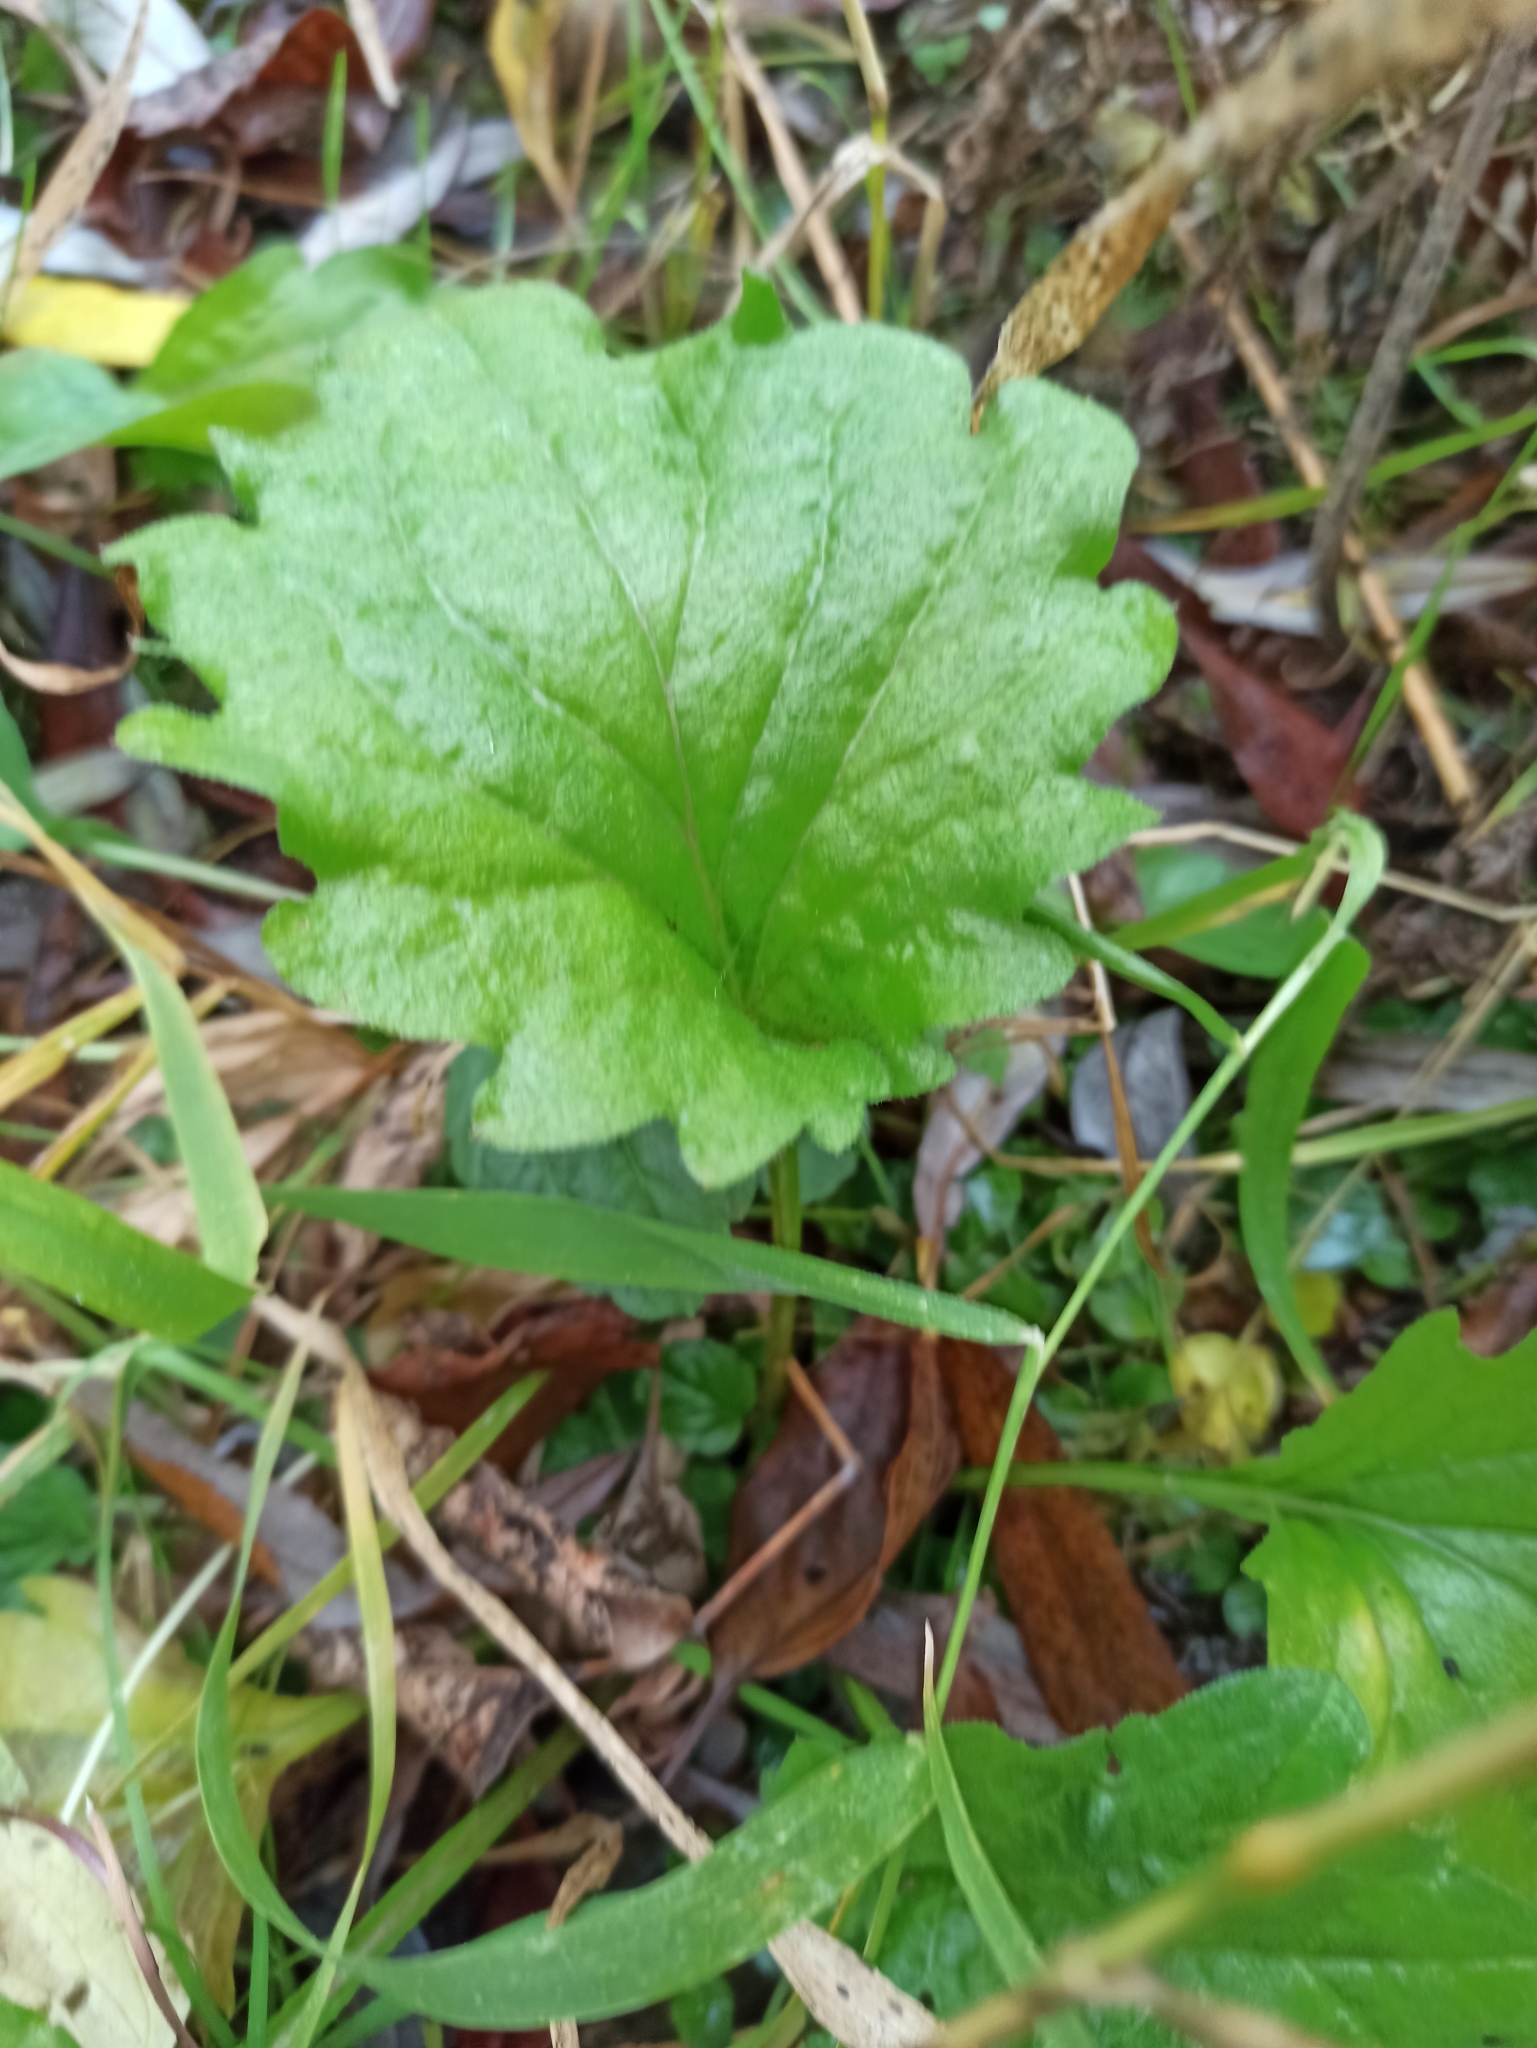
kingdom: Plantae
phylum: Tracheophyta
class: Magnoliopsida
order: Asterales
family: Asteraceae
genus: Erigeron
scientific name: Erigeron annuus
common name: Tall fleabane
